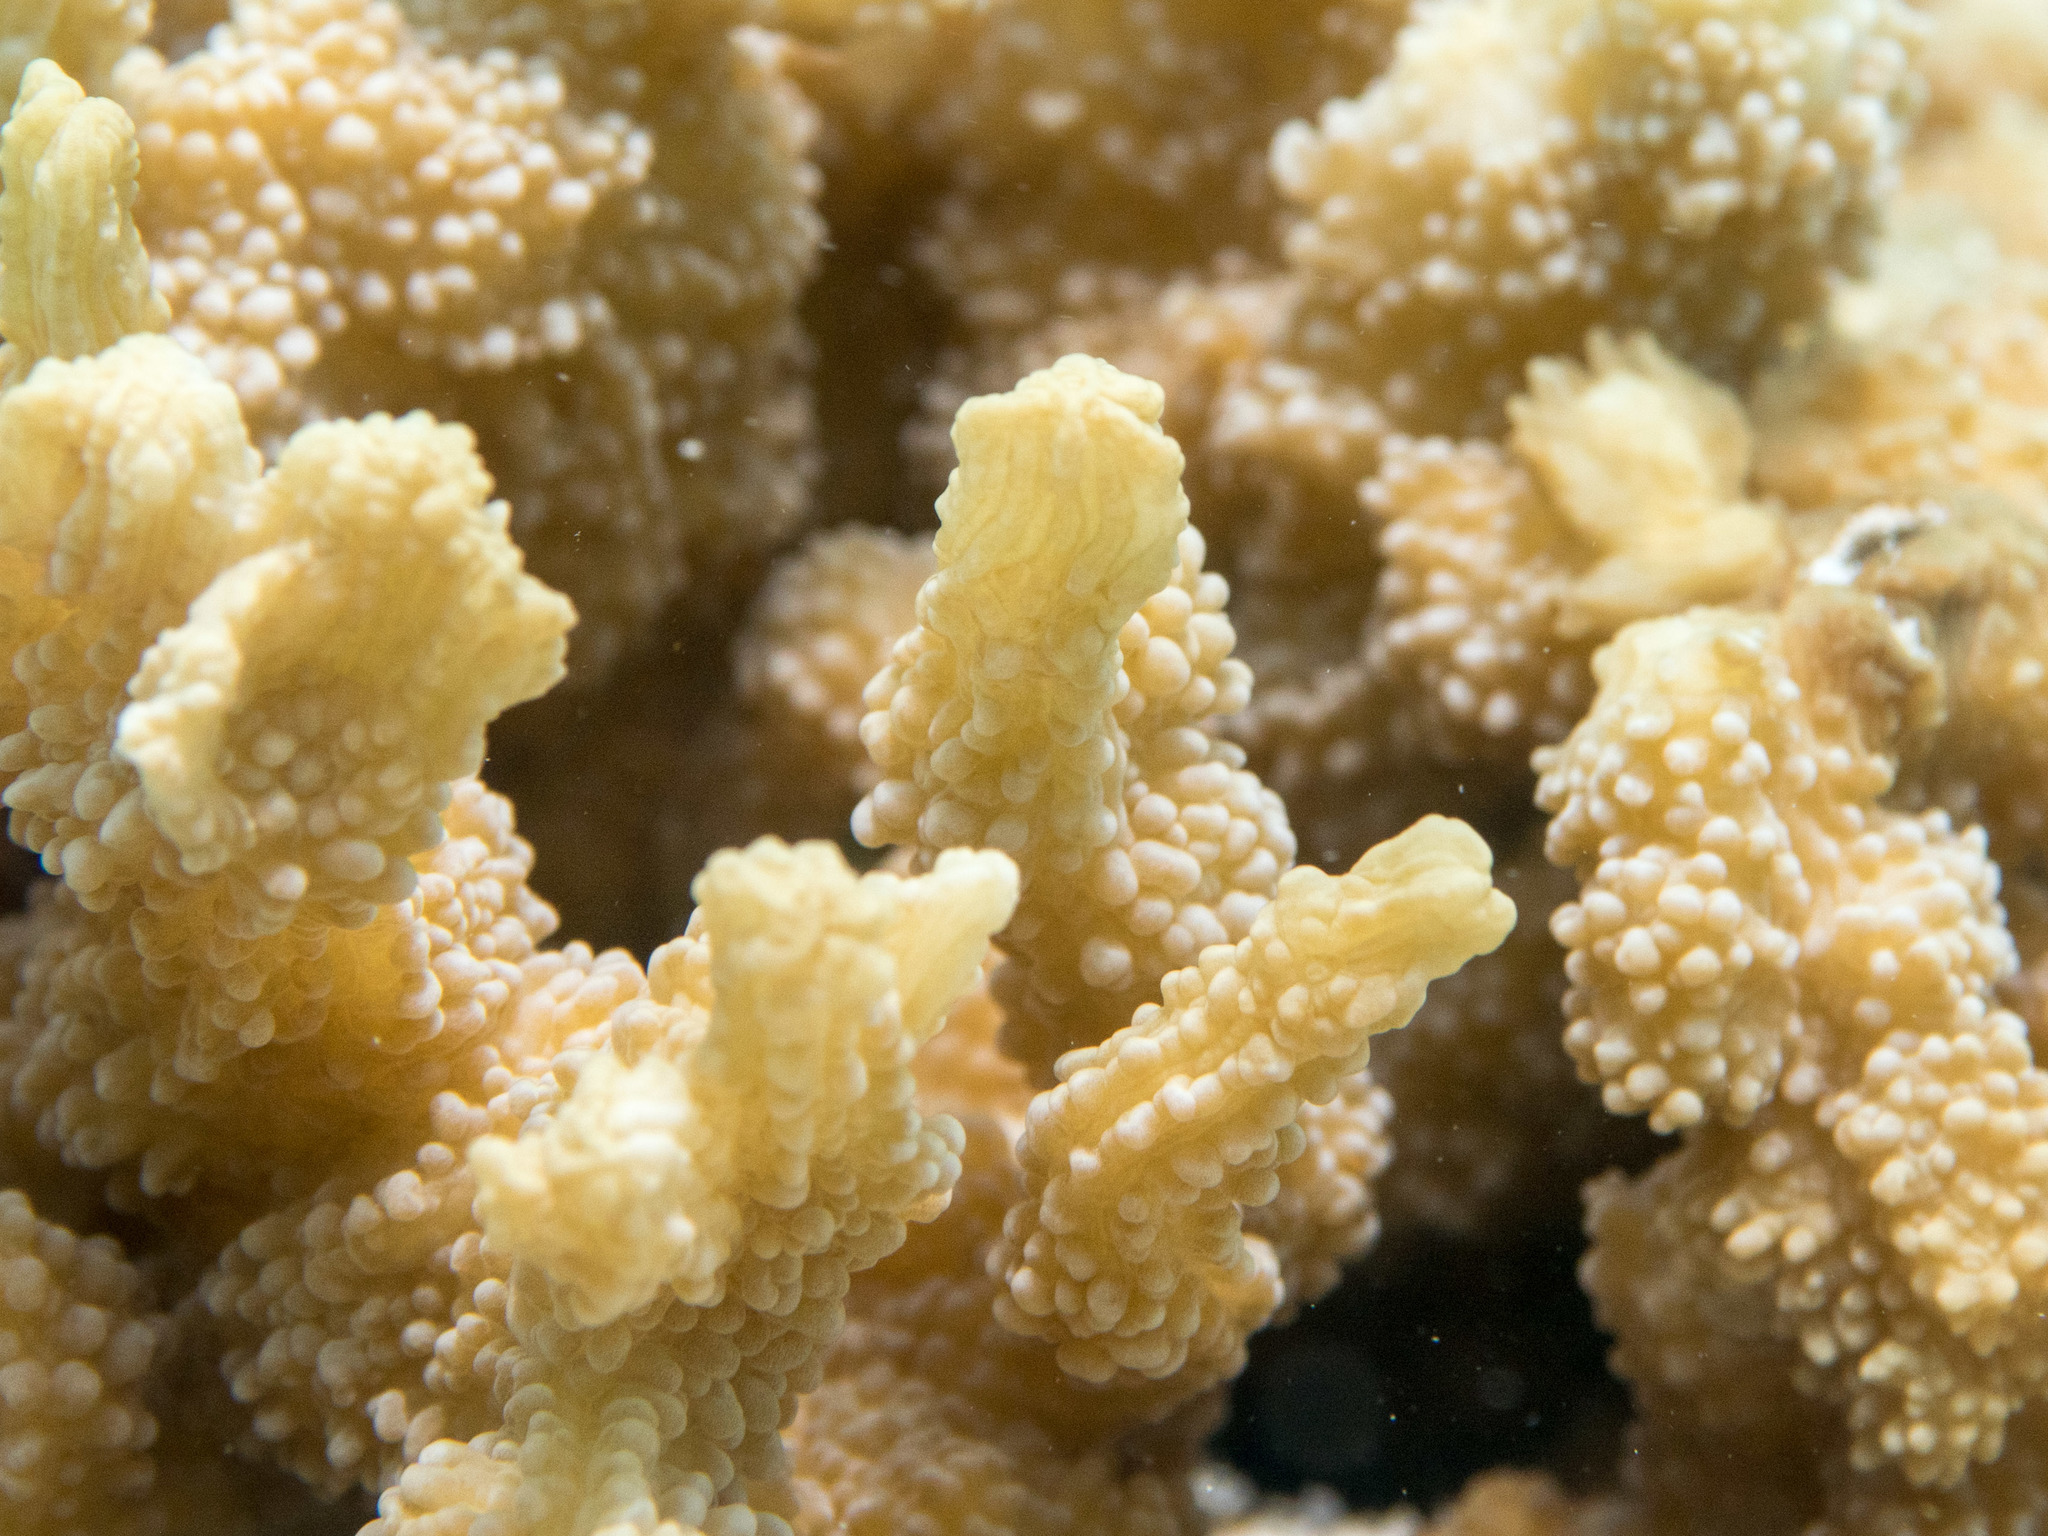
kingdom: Animalia
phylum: Cnidaria
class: Anthozoa
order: Scleractinia
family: Merulinidae
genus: Echinopora
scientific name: Echinopora horrida
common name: Hedgehog coral
